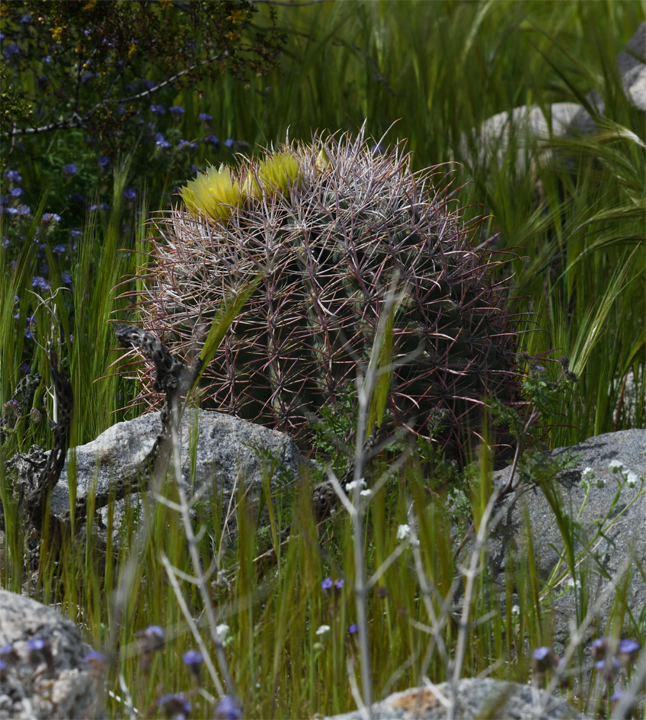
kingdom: Plantae
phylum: Tracheophyta
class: Magnoliopsida
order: Caryophyllales
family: Cactaceae
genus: Ferocactus
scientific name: Ferocactus cylindraceus
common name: California barrel cactus
